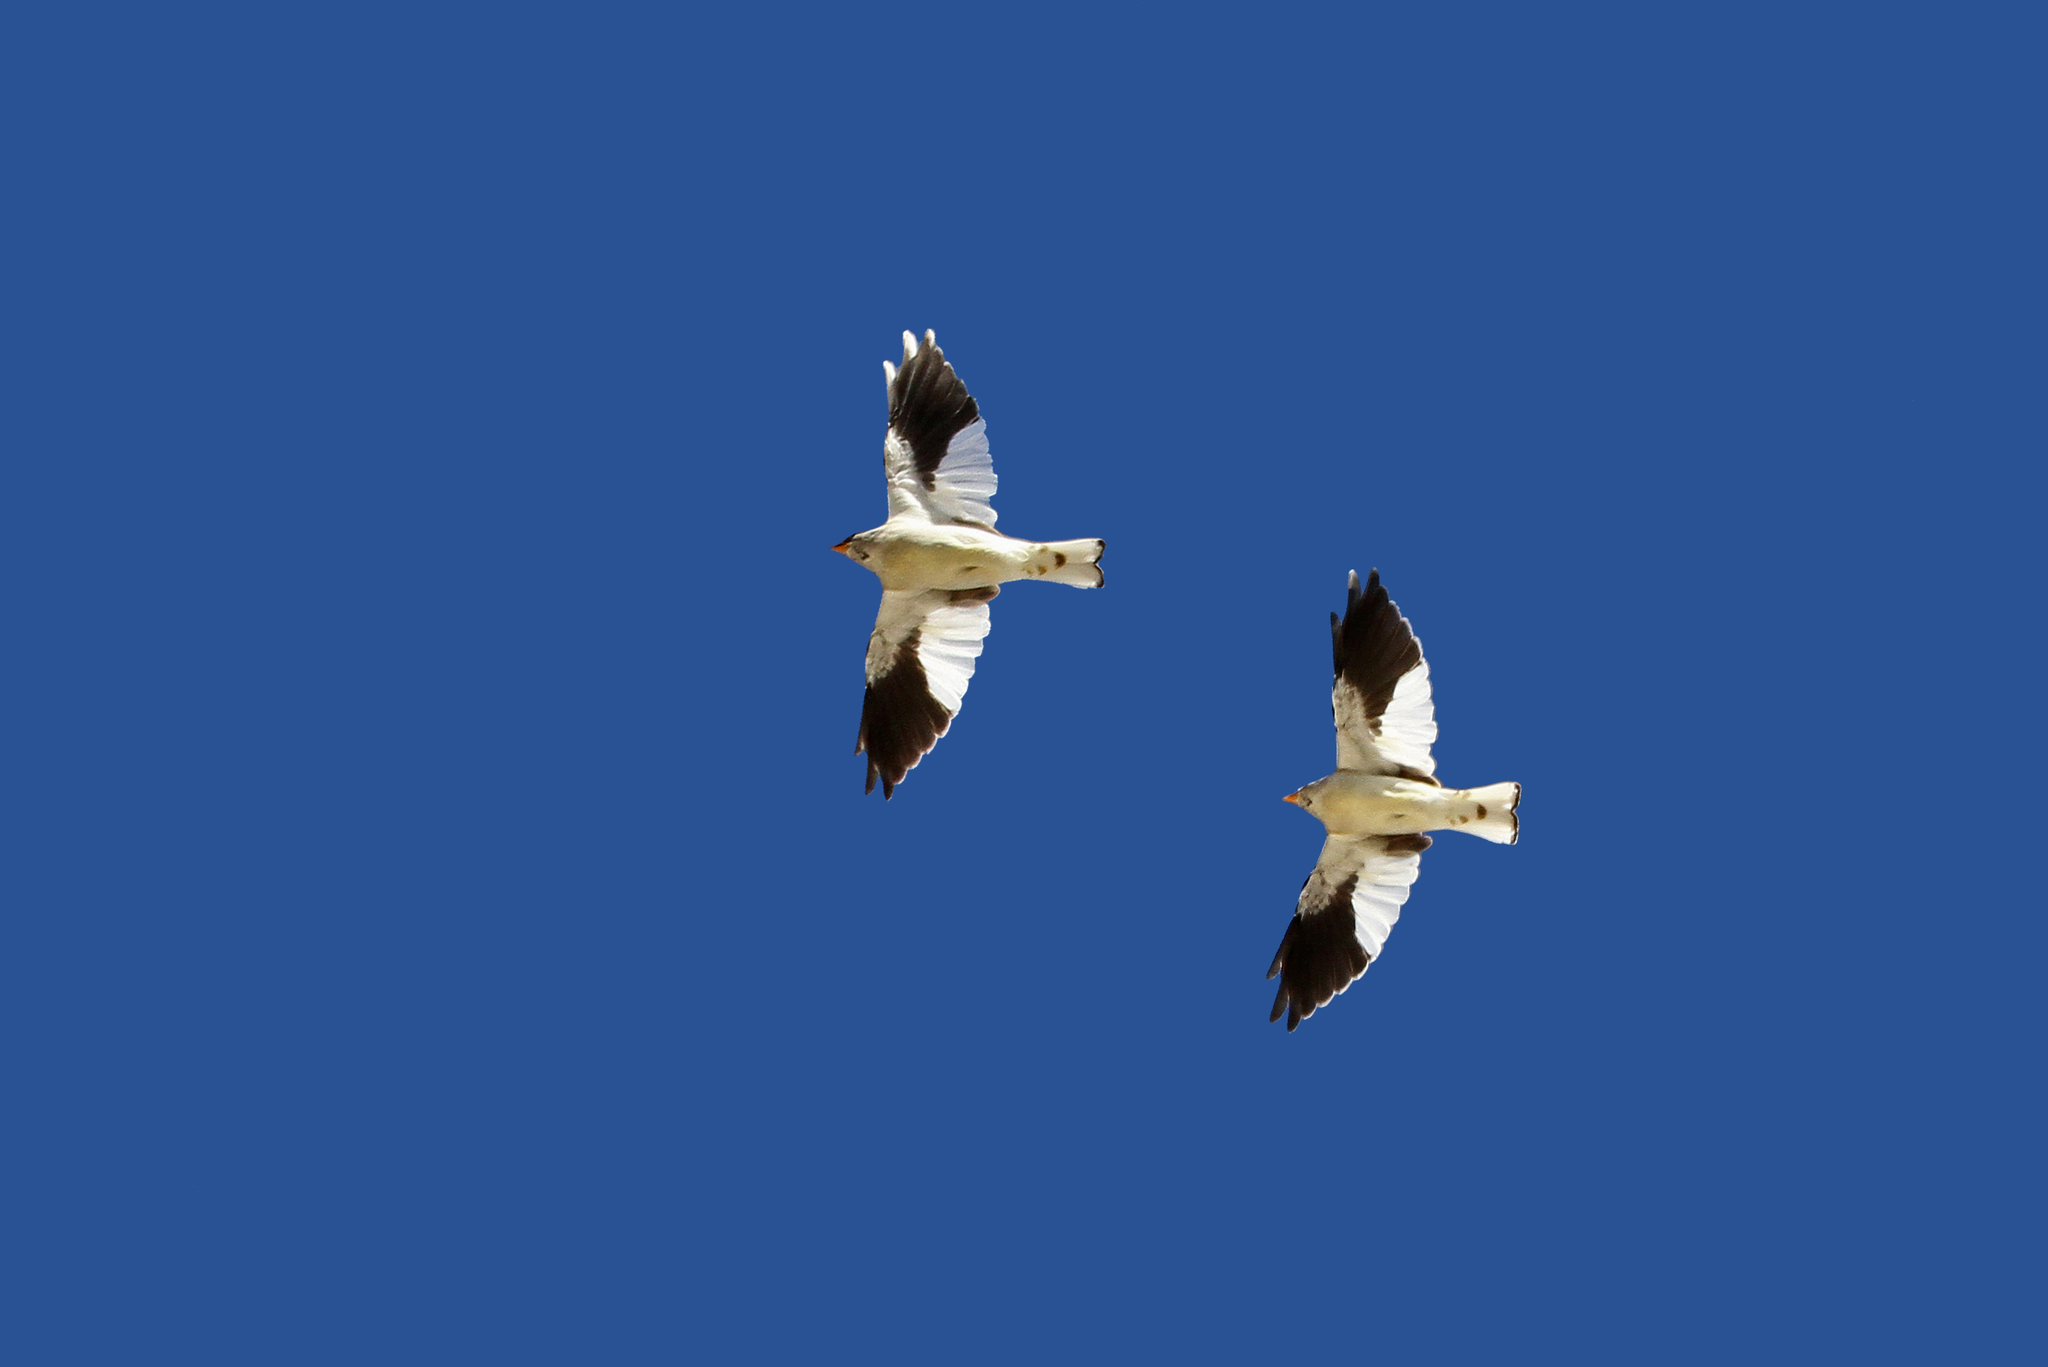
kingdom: Animalia
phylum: Chordata
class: Aves
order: Passeriformes
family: Passeridae
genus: Montifringilla
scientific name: Montifringilla nivalis
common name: White-winged snowfinch
